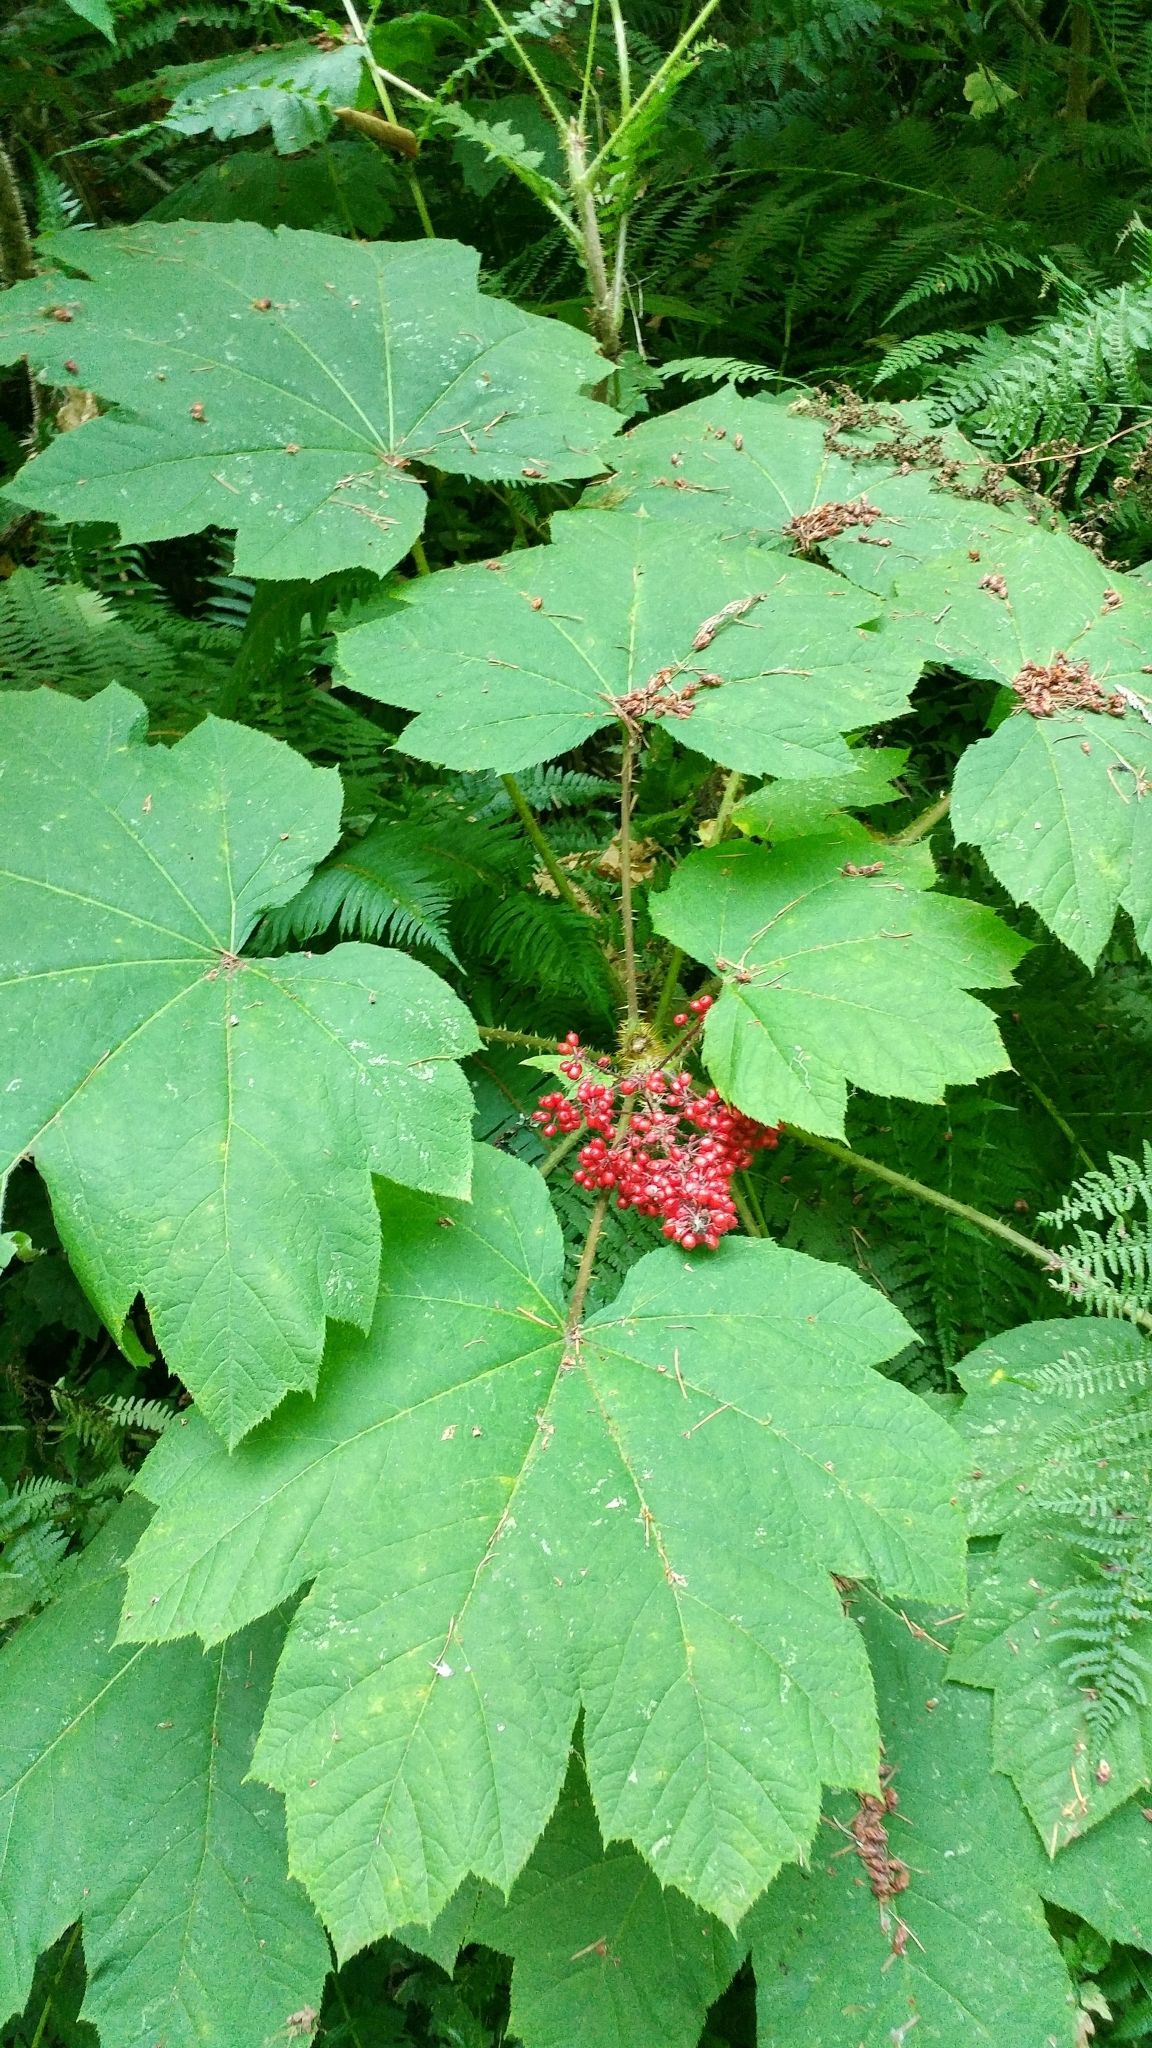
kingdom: Plantae
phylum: Tracheophyta
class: Magnoliopsida
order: Apiales
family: Araliaceae
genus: Oplopanax
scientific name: Oplopanax horridus
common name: Devil's walking-stick
